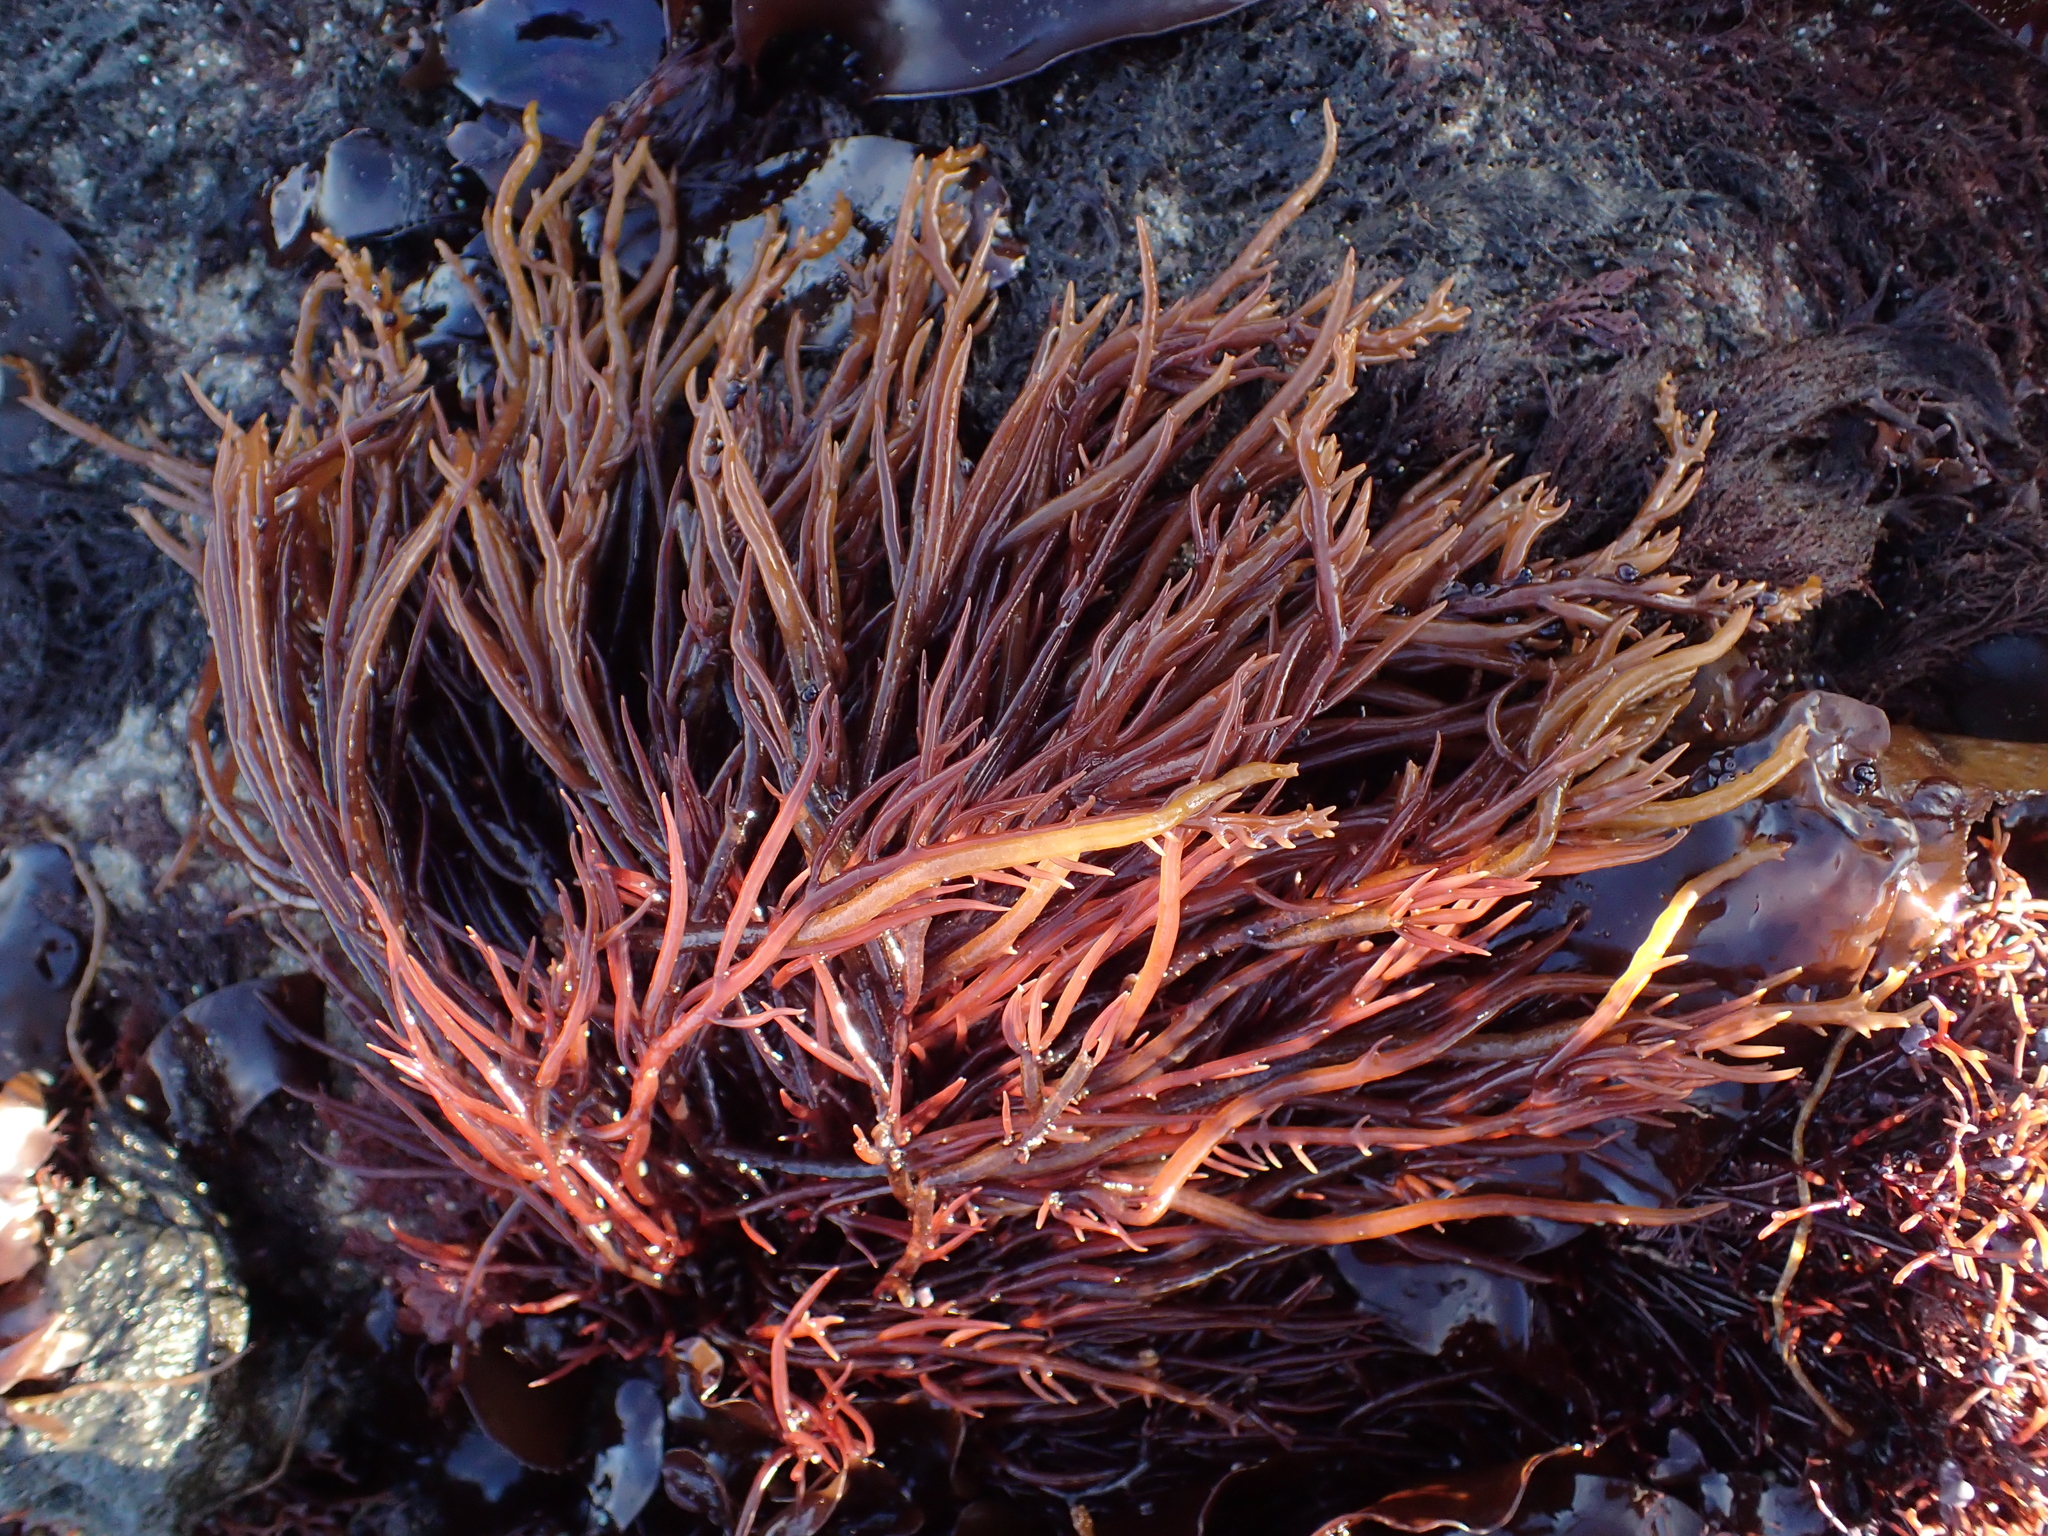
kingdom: Plantae
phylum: Rhodophyta
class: Florideophyceae
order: Gigartinales
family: Solieriaceae
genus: Sarcodiotheca
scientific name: Sarcodiotheca gaudichaudii
